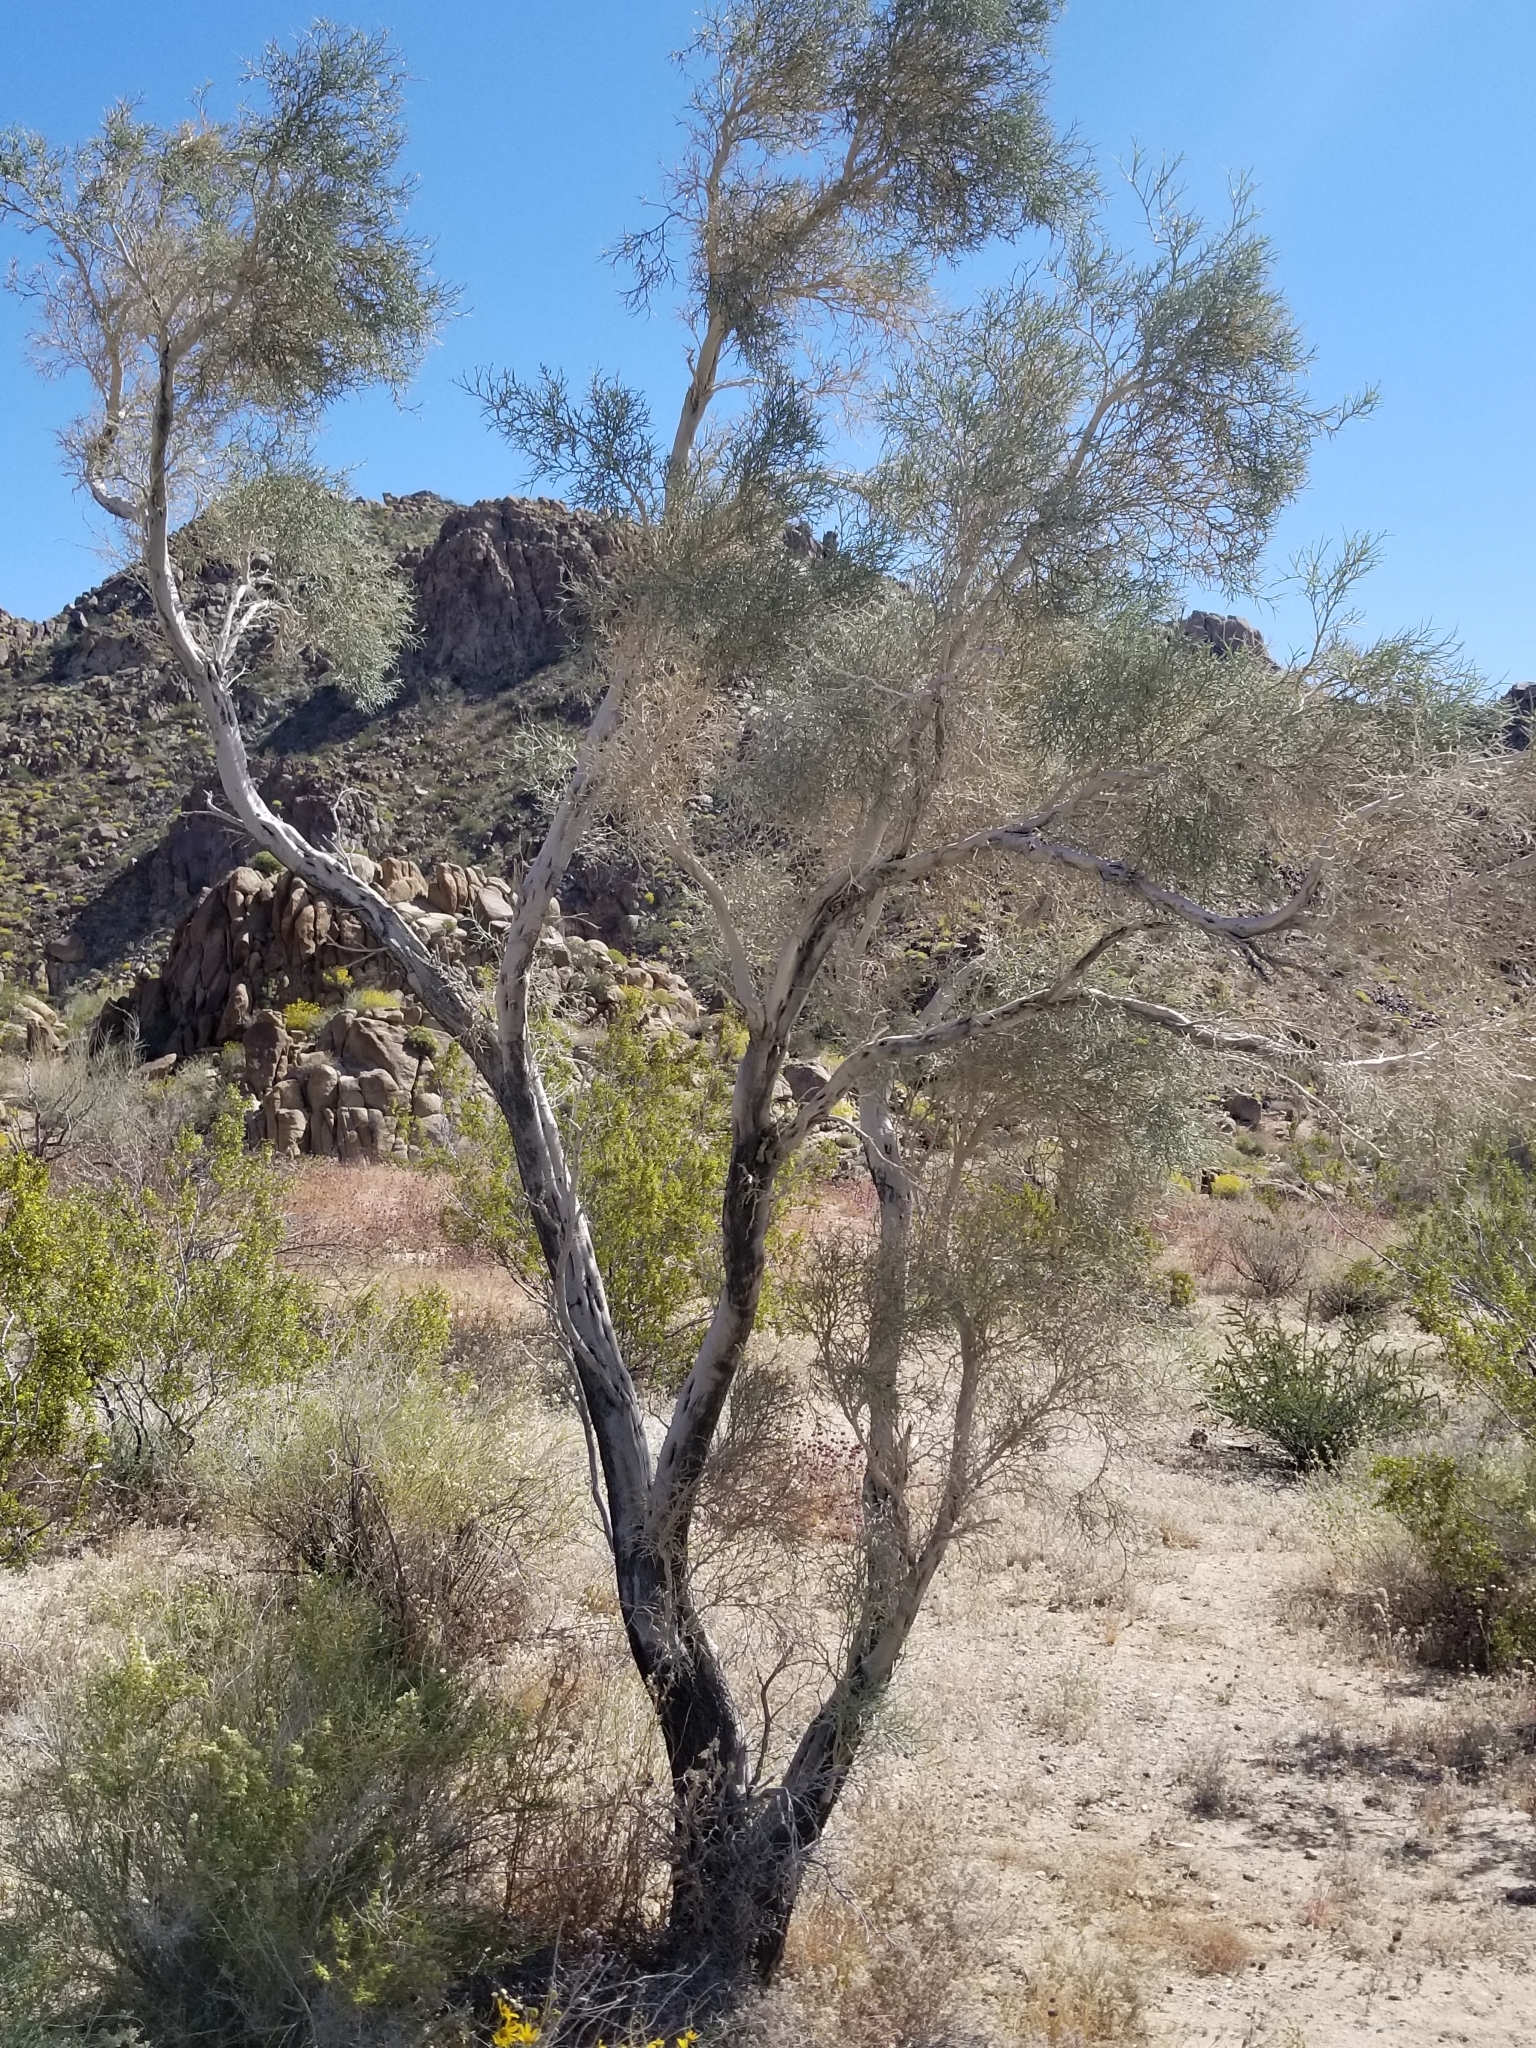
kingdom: Plantae
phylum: Tracheophyta
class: Magnoliopsida
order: Fabales
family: Fabaceae
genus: Psorothamnus
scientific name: Psorothamnus spinosus
